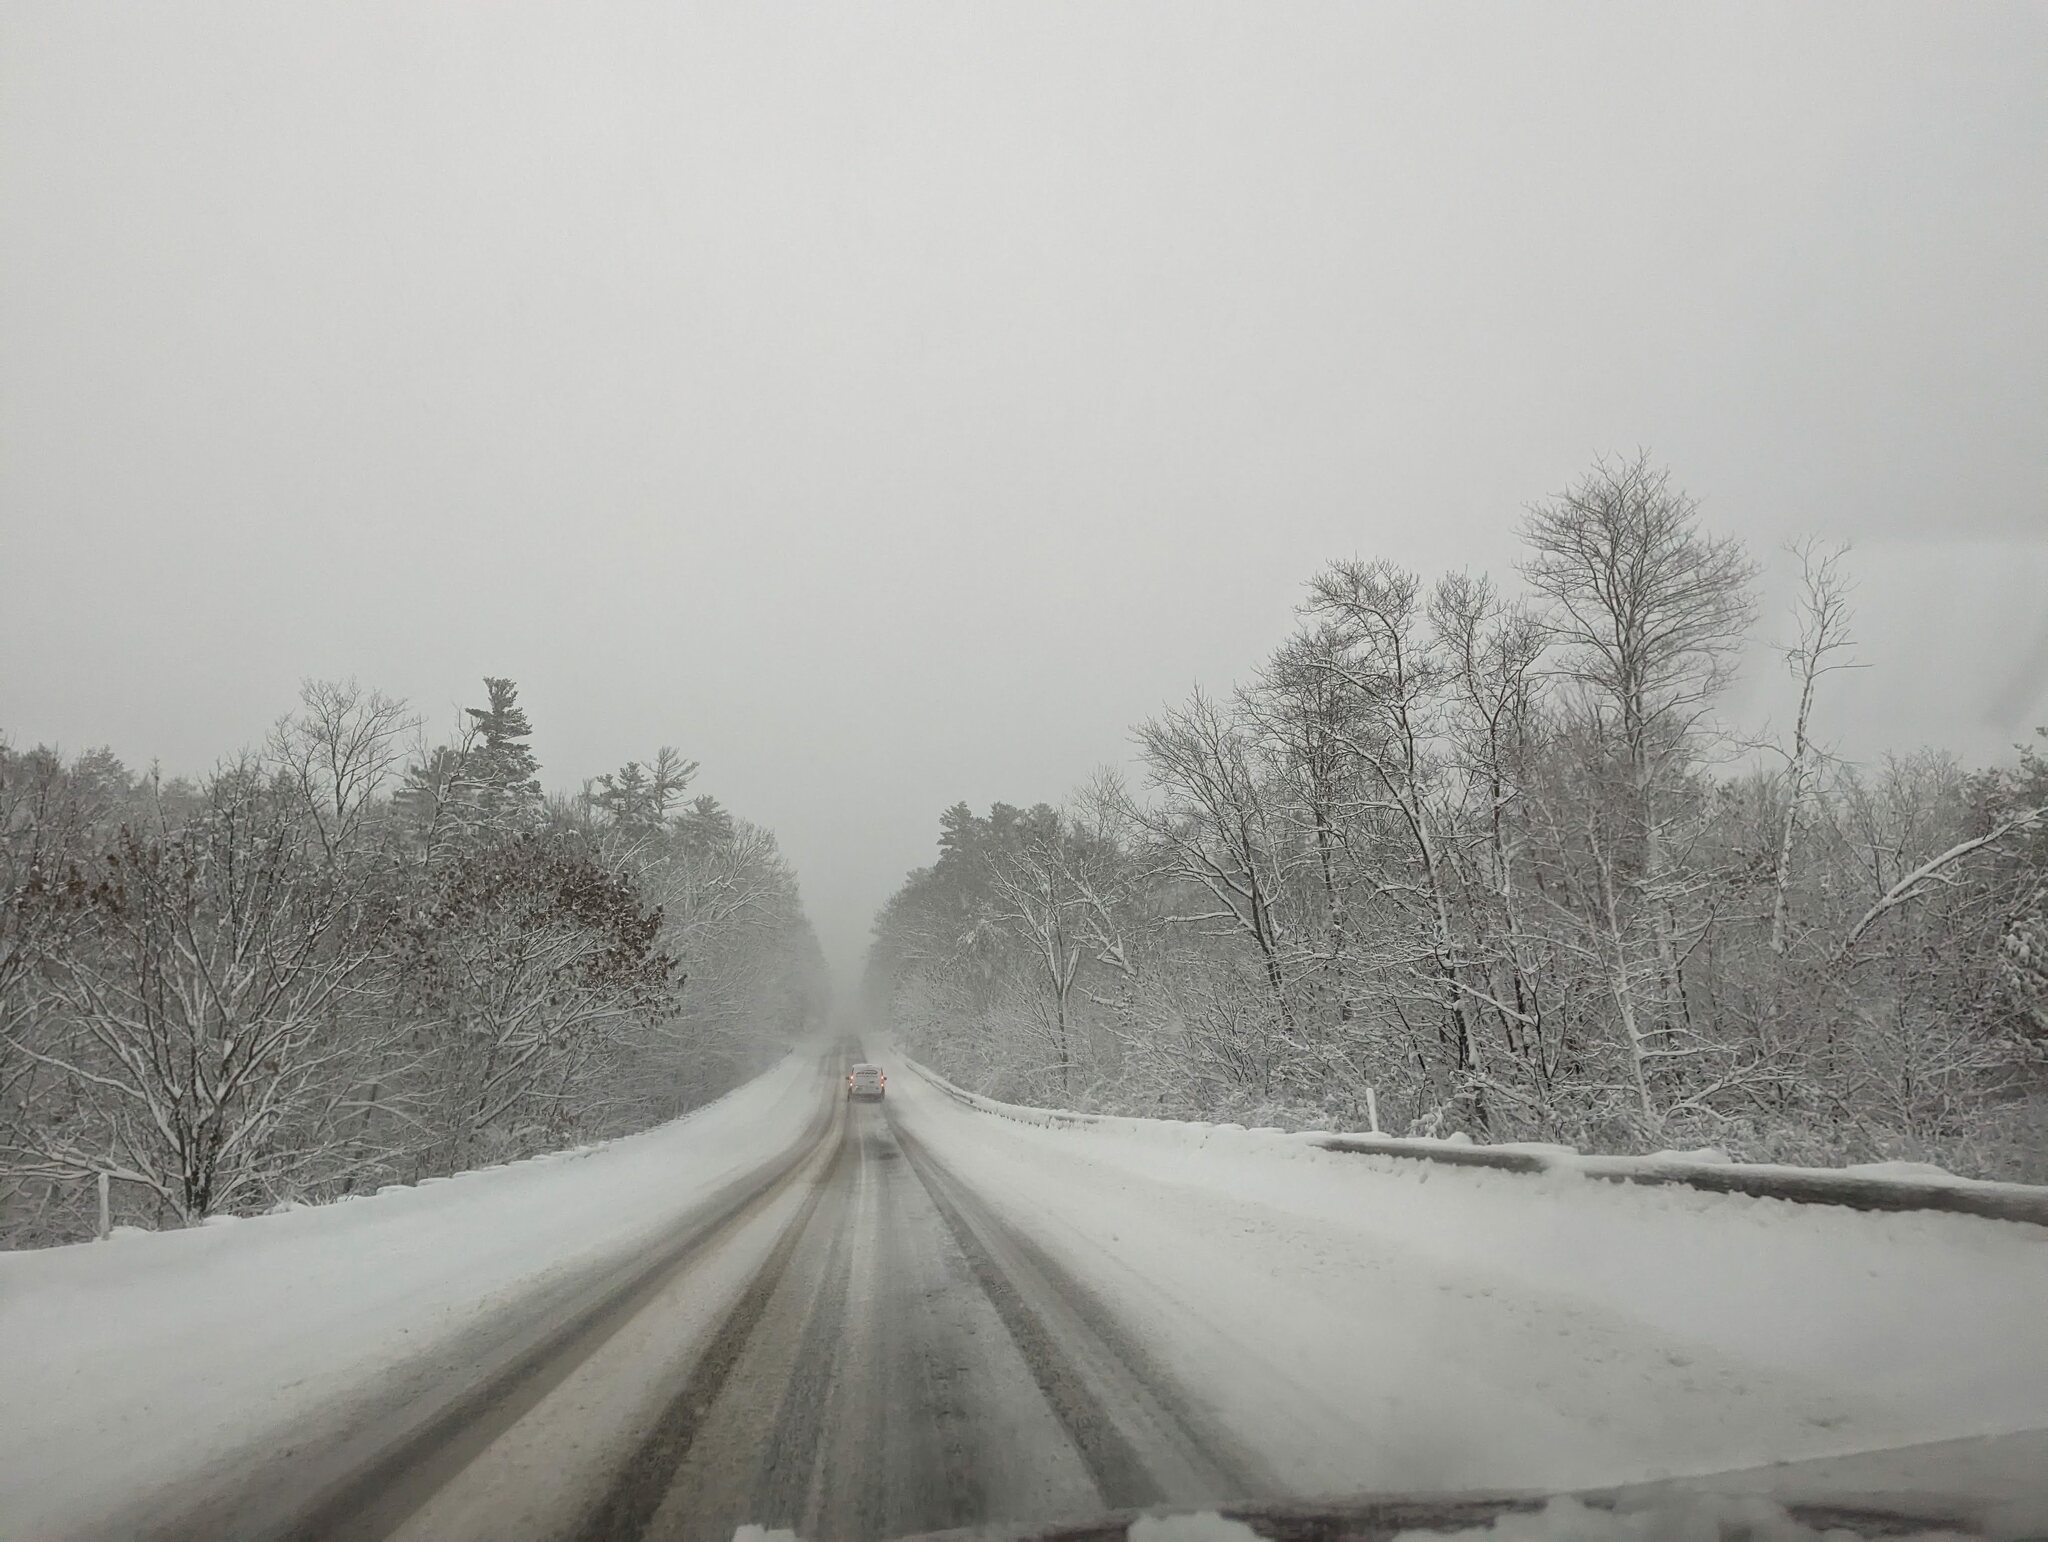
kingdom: Plantae
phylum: Tracheophyta
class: Pinopsida
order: Pinales
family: Pinaceae
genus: Pinus
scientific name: Pinus strobus
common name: Weymouth pine
